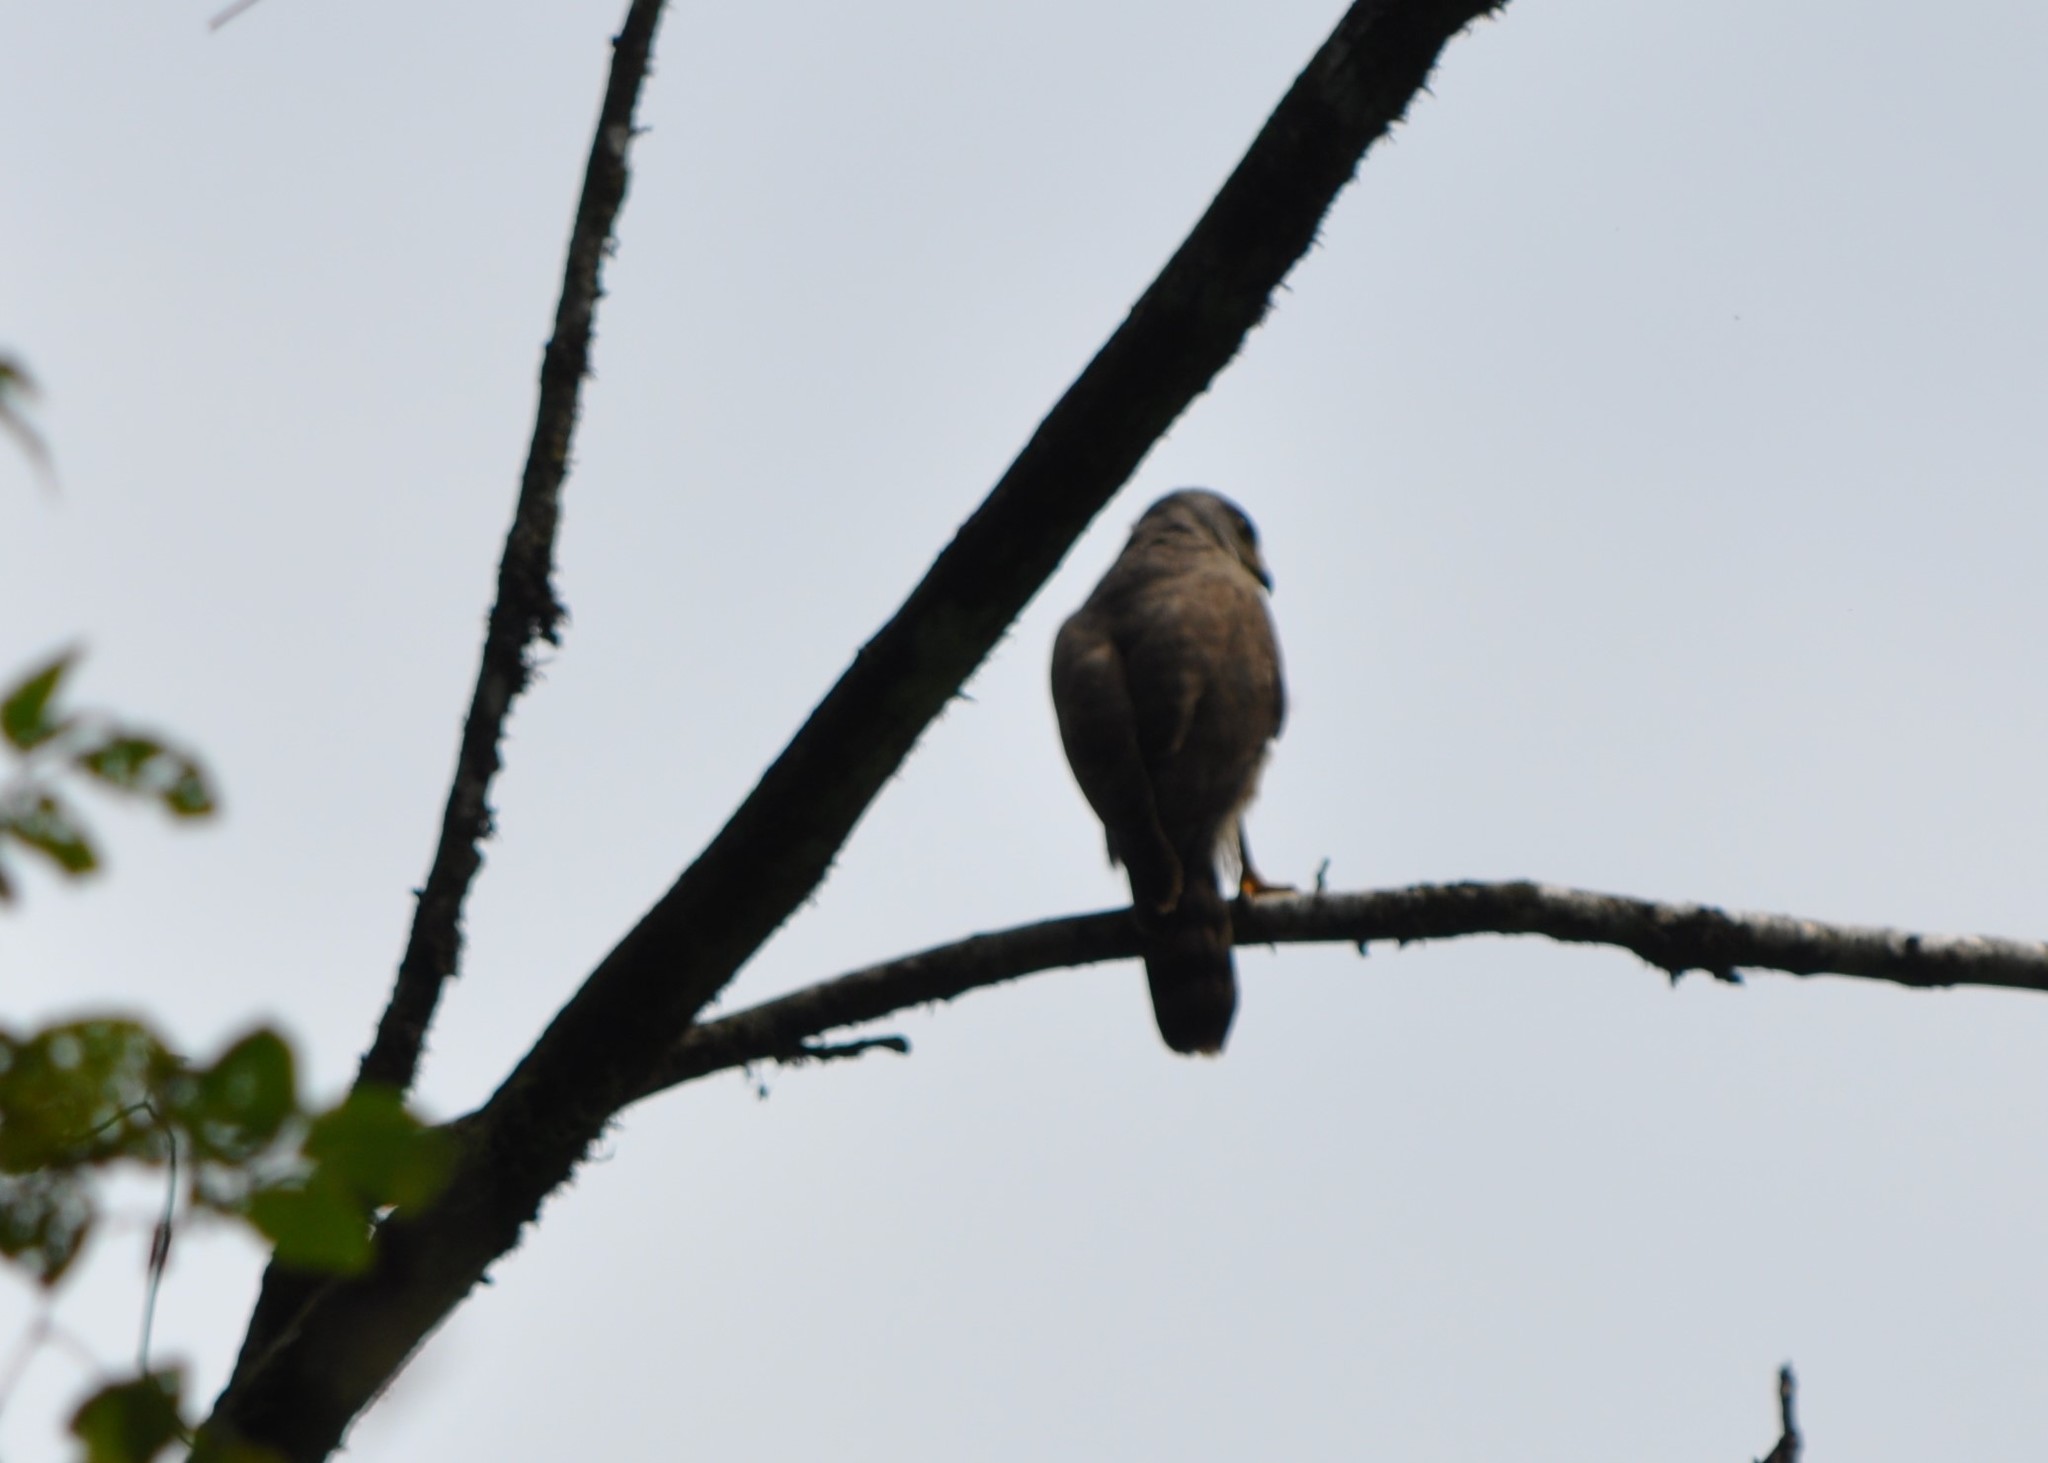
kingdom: Animalia
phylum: Chordata
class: Aves
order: Accipitriformes
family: Accipitridae
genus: Rupornis
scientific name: Rupornis magnirostris
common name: Roadside hawk
